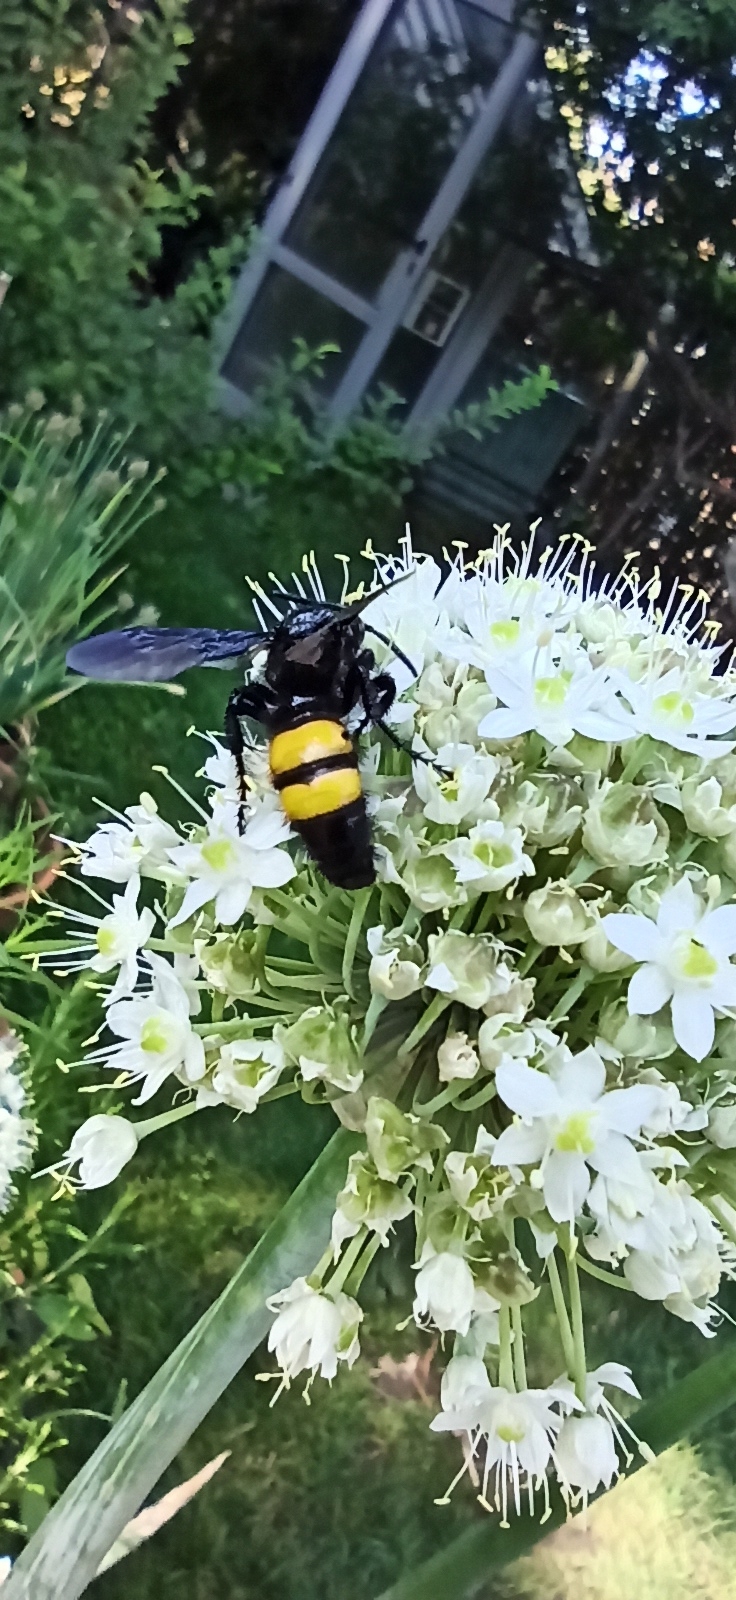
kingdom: Animalia
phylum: Arthropoda
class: Insecta
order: Hymenoptera
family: Scoliidae
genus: Scolia
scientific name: Scolia hirta
